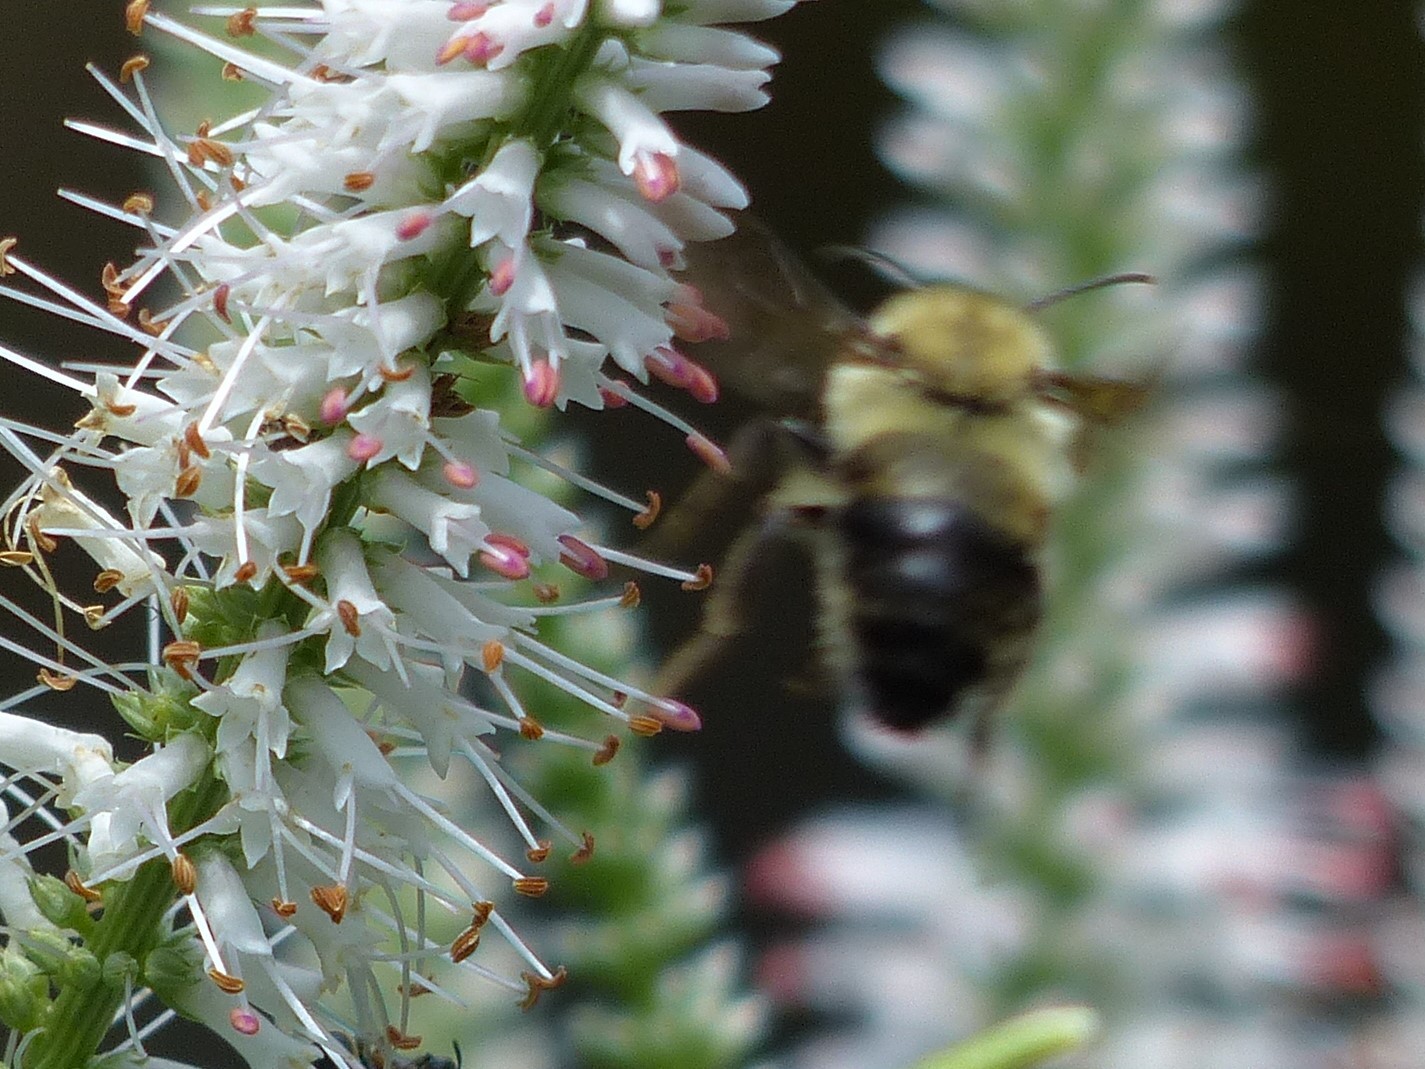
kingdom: Animalia
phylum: Arthropoda
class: Insecta
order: Hymenoptera
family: Apidae
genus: Bombus
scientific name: Bombus bimaculatus
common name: Two-spotted bumble bee
